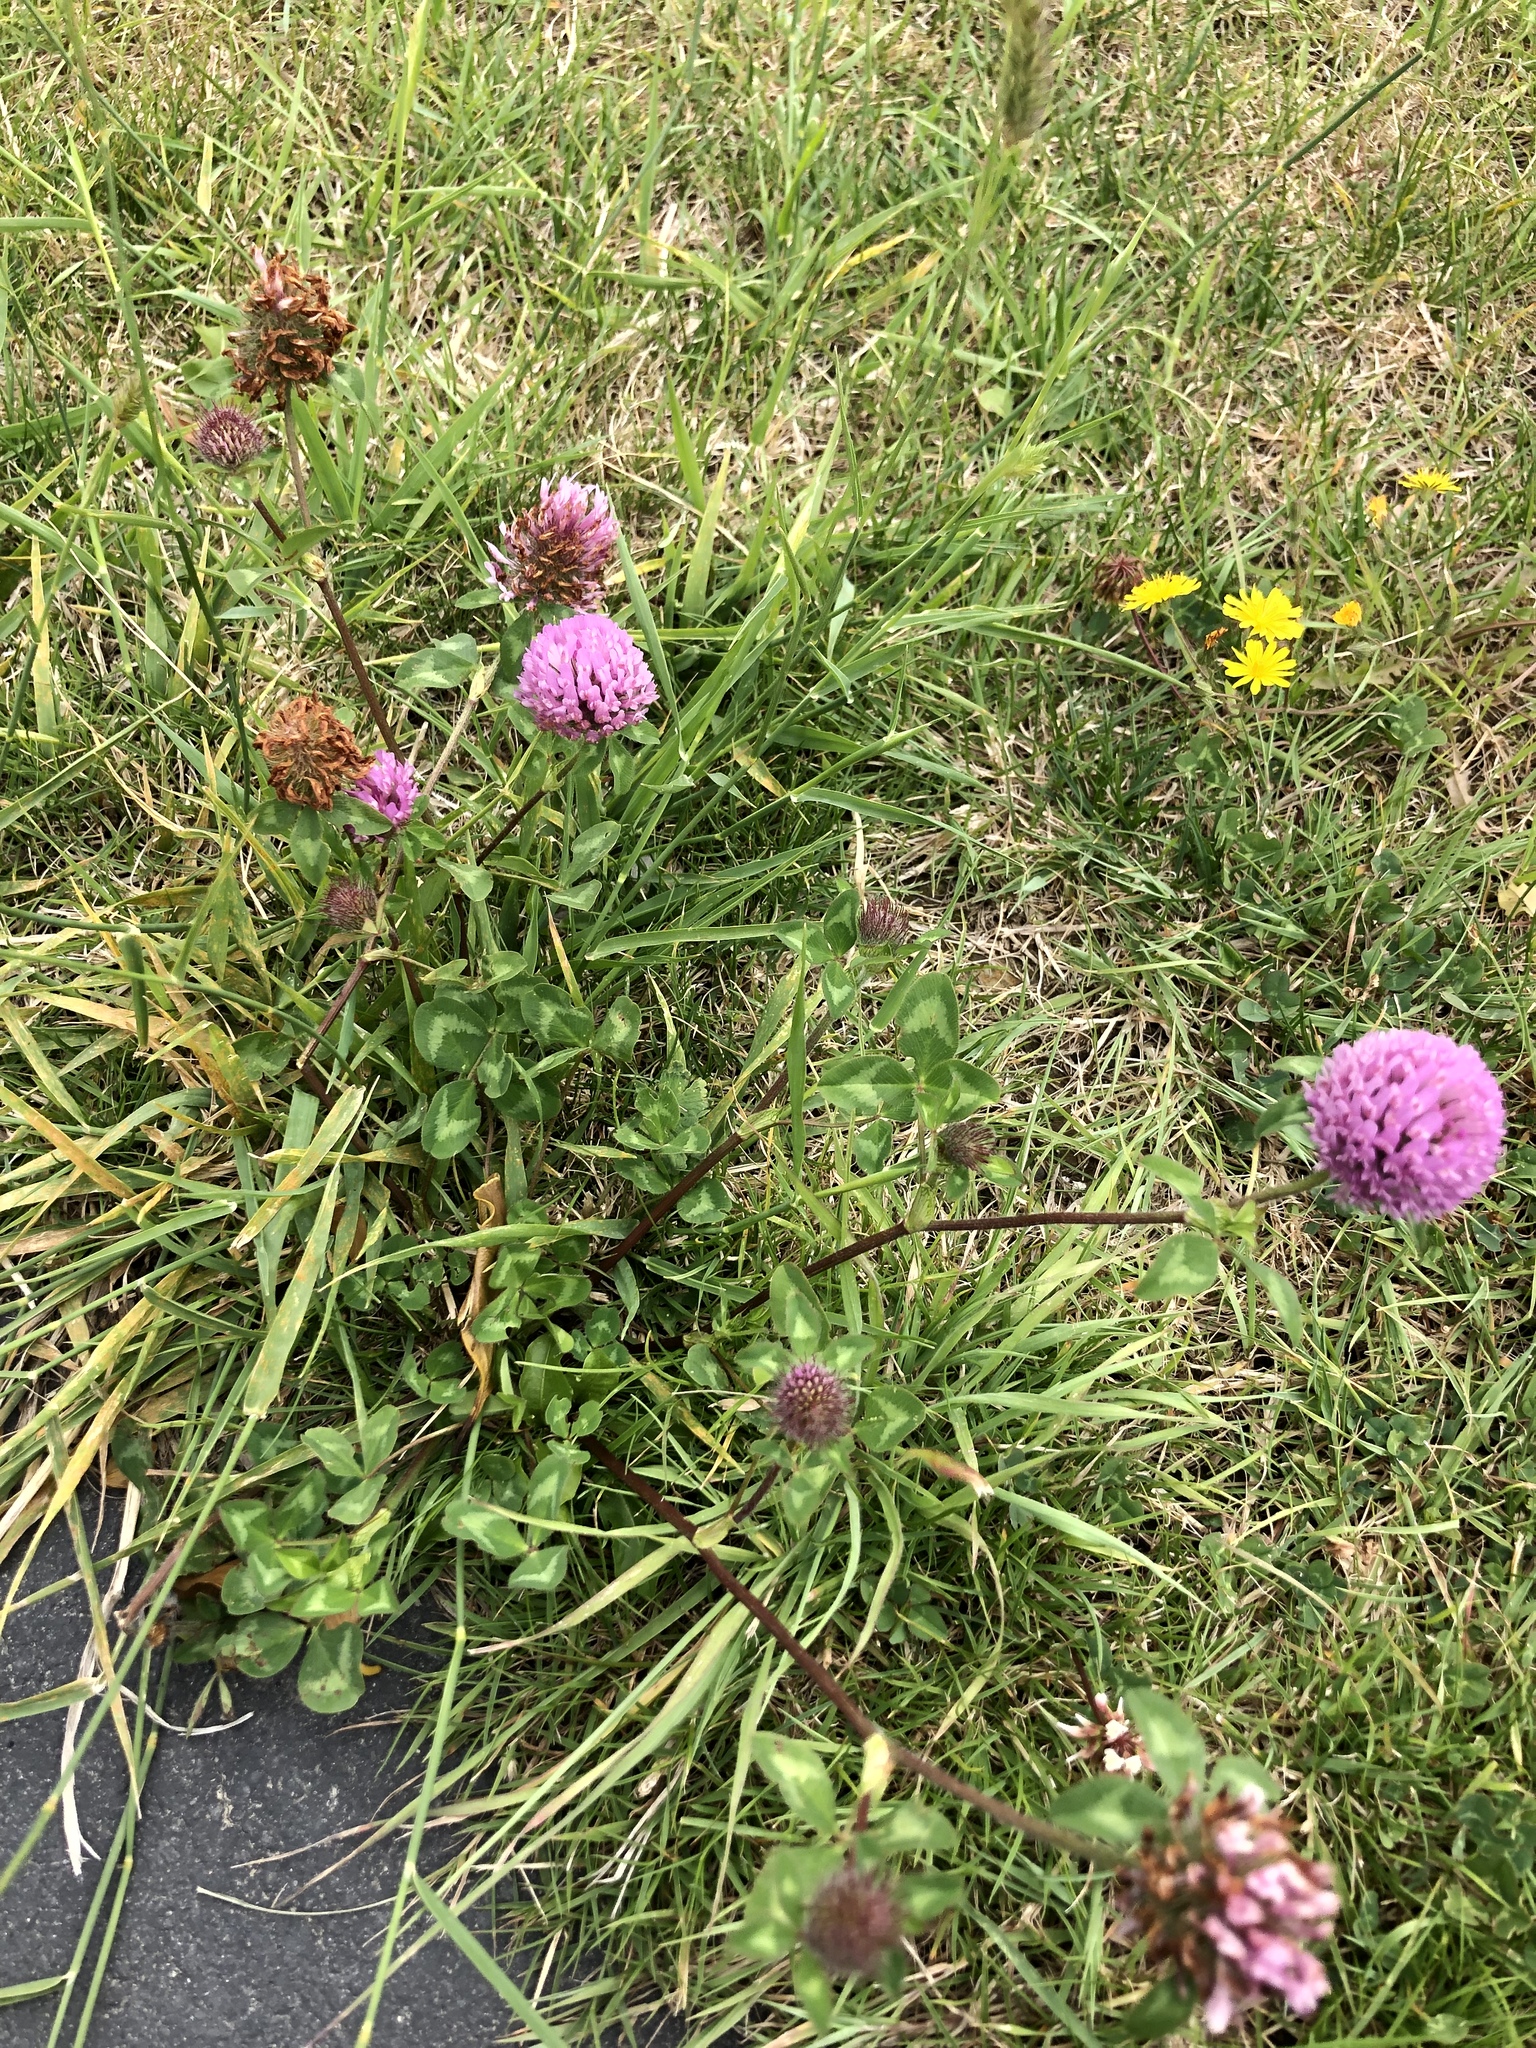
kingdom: Plantae
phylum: Tracheophyta
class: Magnoliopsida
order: Fabales
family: Fabaceae
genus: Trifolium
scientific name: Trifolium pratense
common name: Red clover
